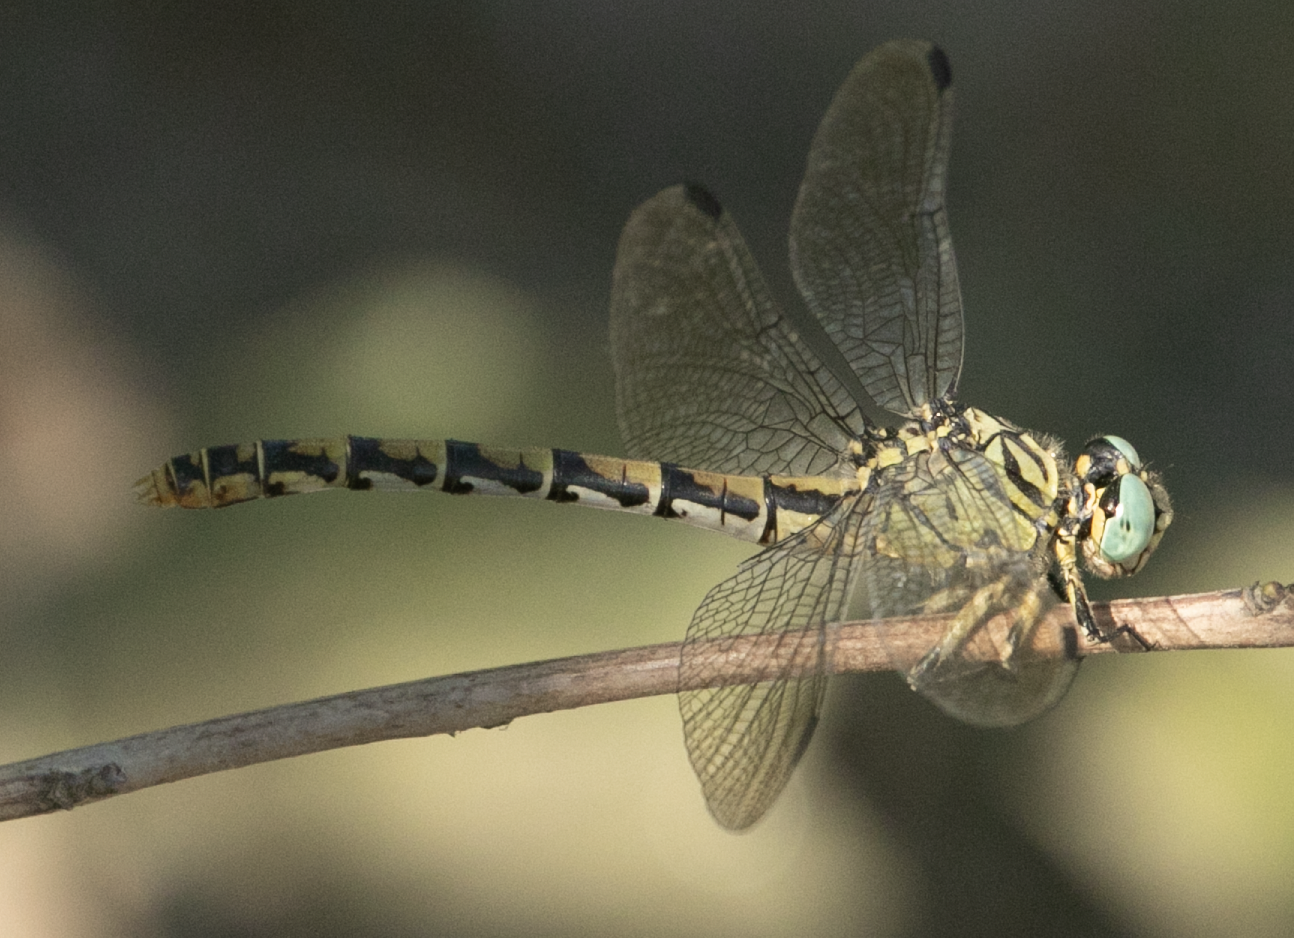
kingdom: Animalia
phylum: Arthropoda
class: Insecta
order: Odonata
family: Gomphidae
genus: Onychogomphus
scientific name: Onychogomphus forcipatus
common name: Small pincertail
